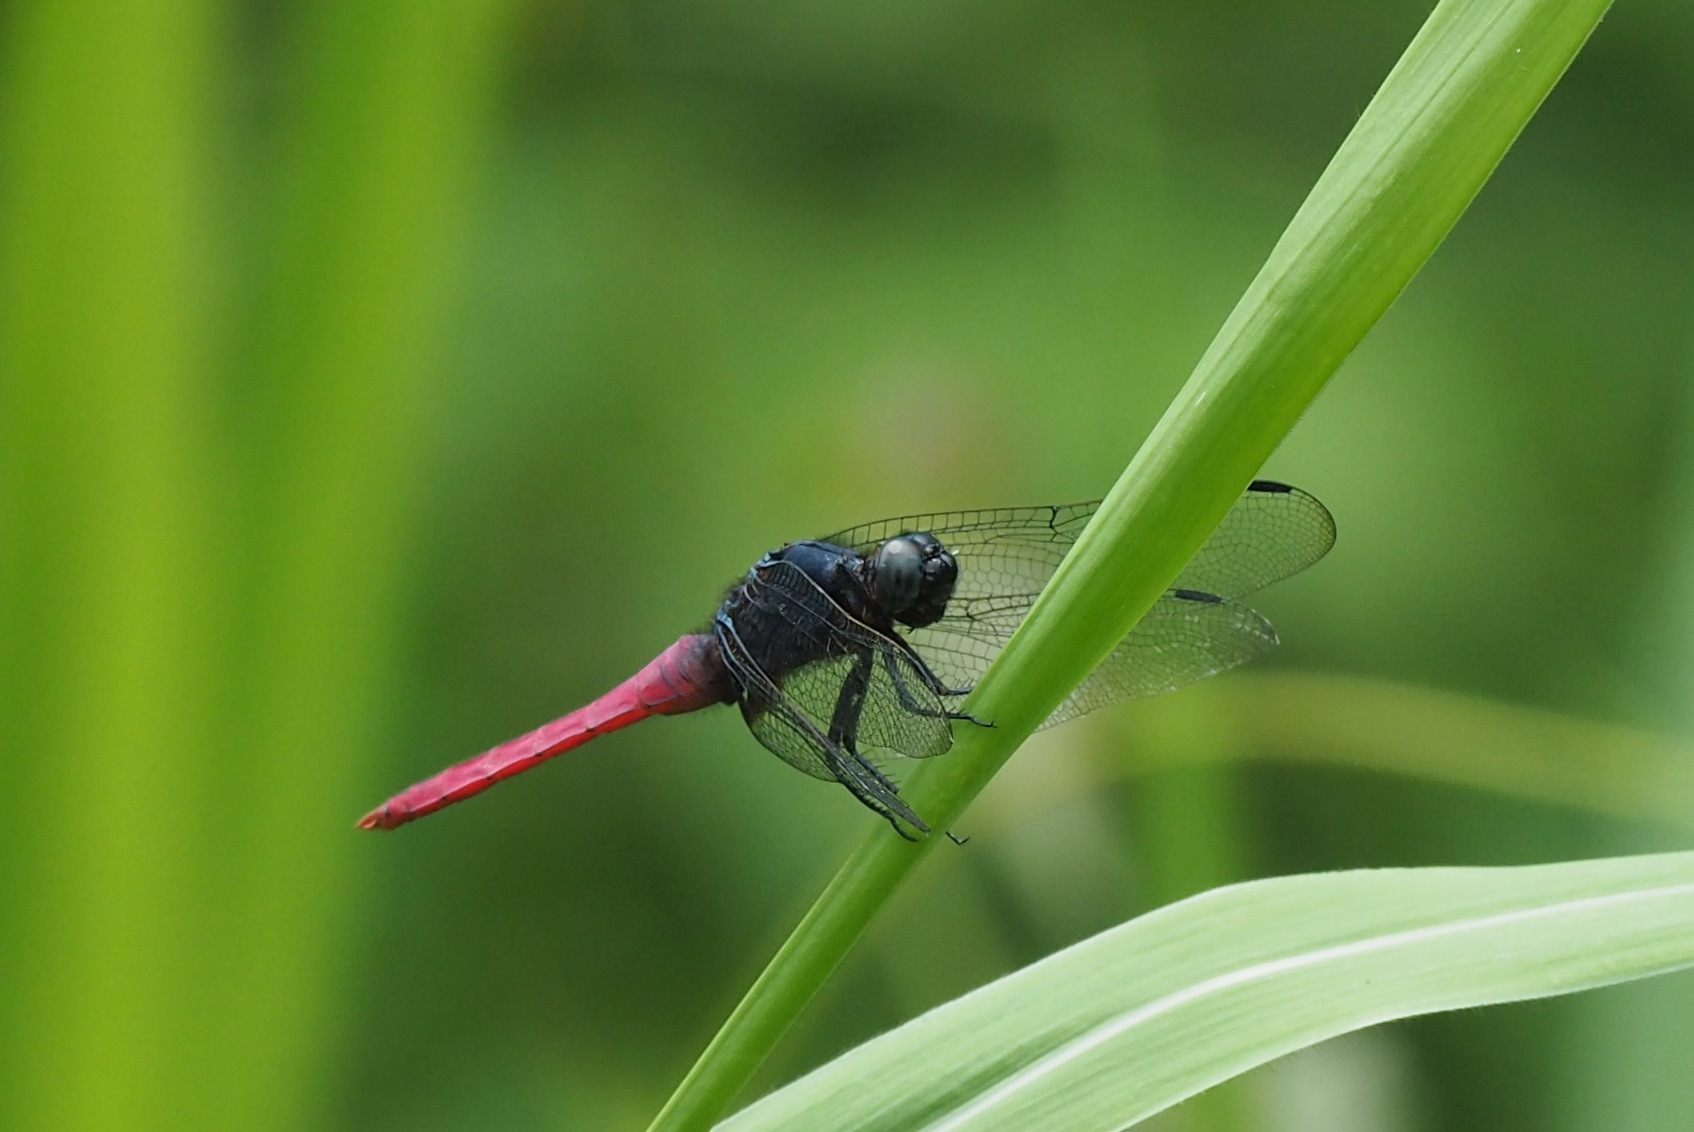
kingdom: Animalia
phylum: Arthropoda
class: Insecta
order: Odonata
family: Libellulidae
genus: Orthetrum
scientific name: Orthetrum pruinosum
